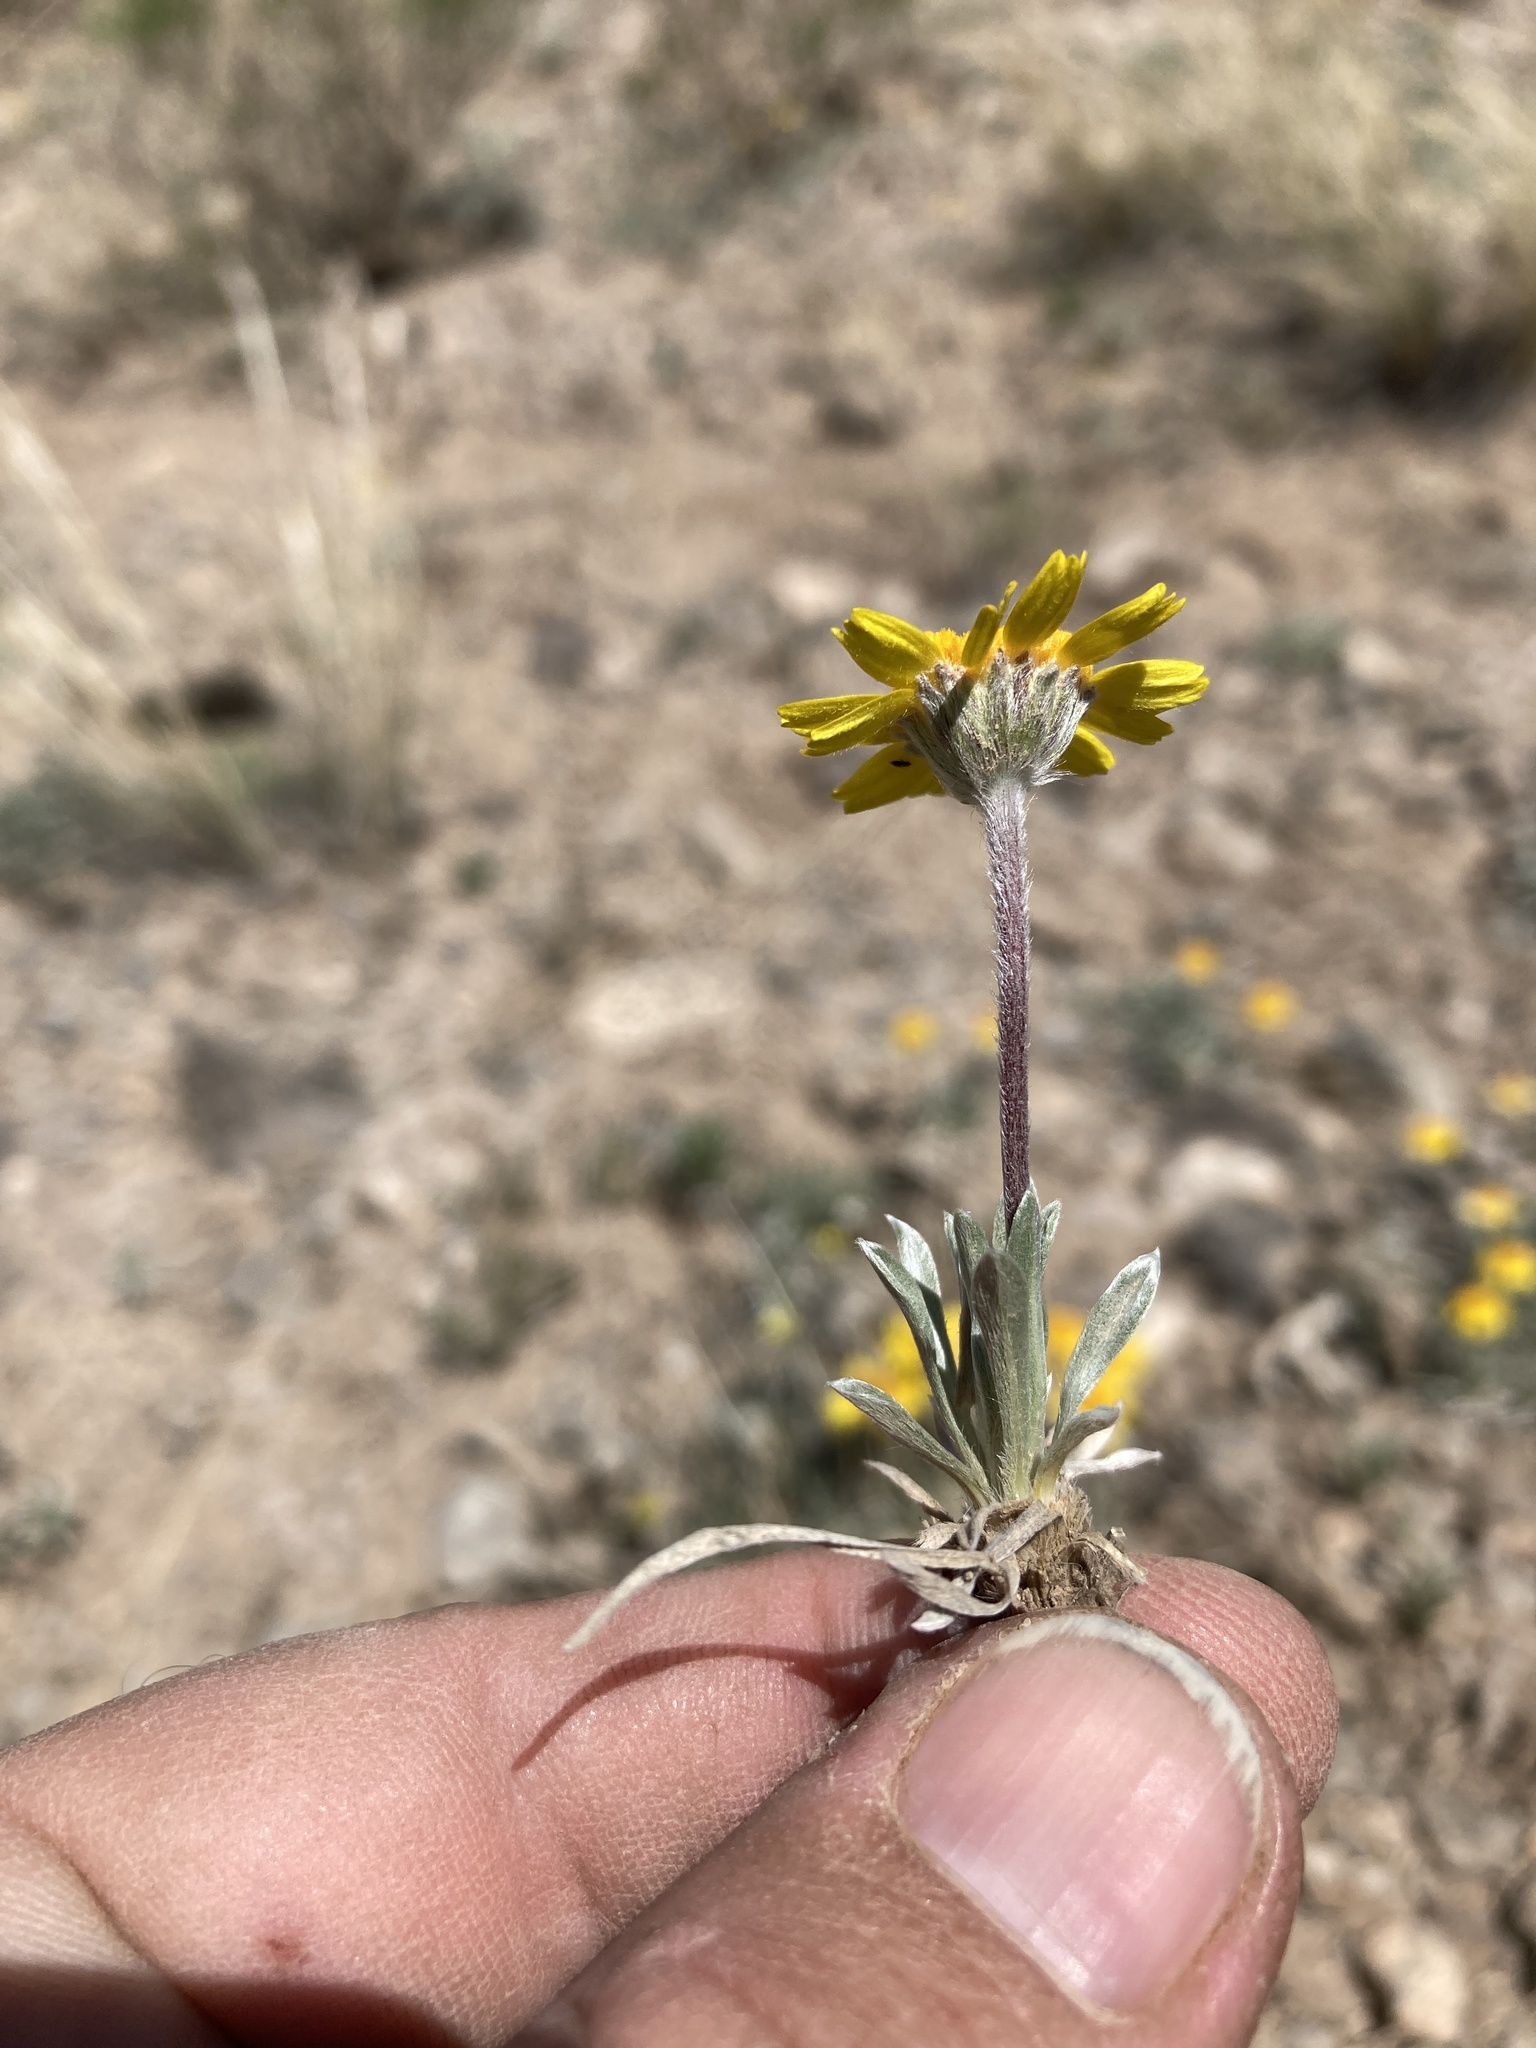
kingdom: Plantae
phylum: Tracheophyta
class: Magnoliopsida
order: Asterales
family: Asteraceae
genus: Tetraneuris
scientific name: Tetraneuris acaulis
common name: Butte marigold
